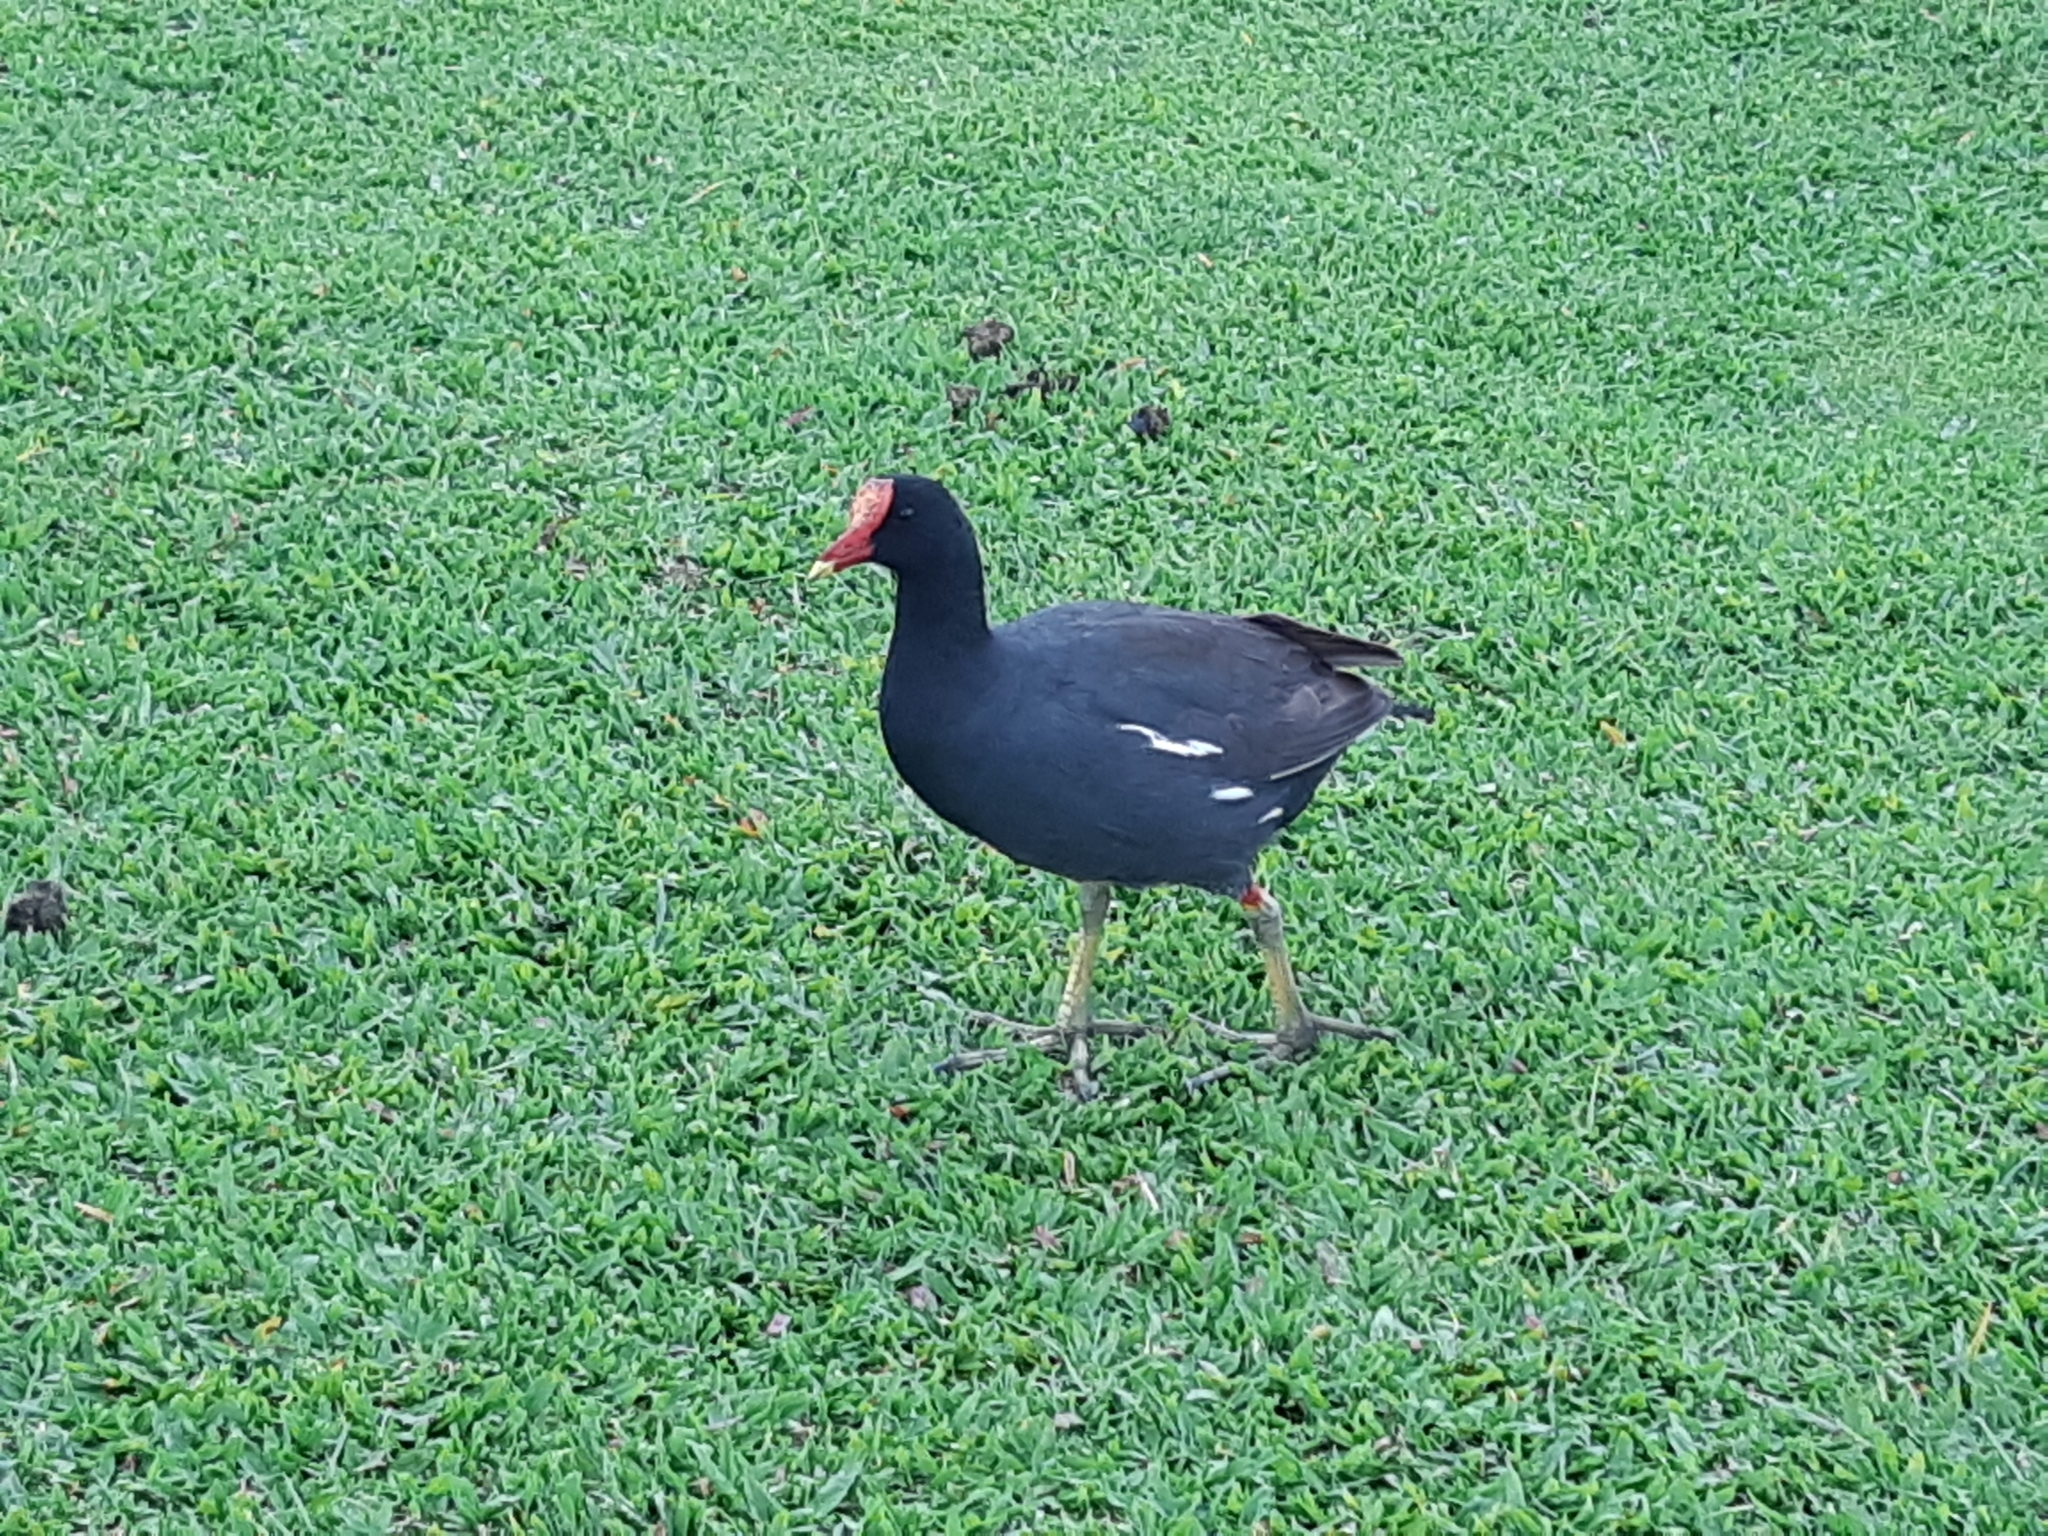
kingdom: Animalia
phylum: Chordata
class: Aves
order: Gruiformes
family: Rallidae
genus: Gallinula
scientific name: Gallinula chloropus
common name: Common moorhen
